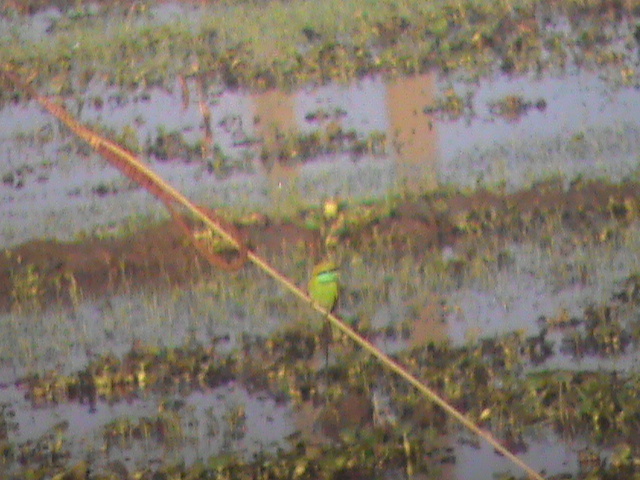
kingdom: Animalia
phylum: Chordata
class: Aves
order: Coraciiformes
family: Meropidae
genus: Merops
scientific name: Merops orientalis
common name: Green bee-eater
